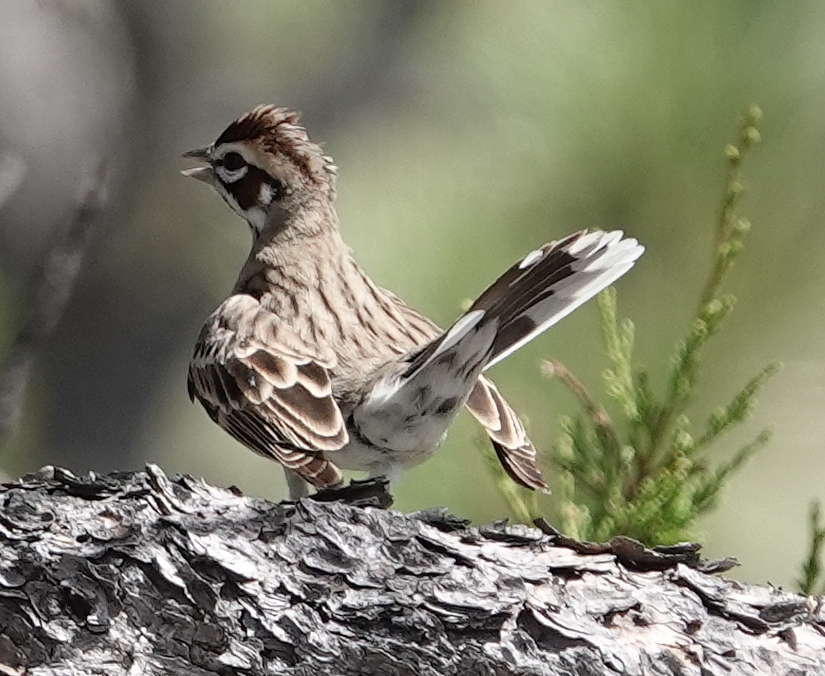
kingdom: Animalia
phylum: Chordata
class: Aves
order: Passeriformes
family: Passerellidae
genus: Chondestes
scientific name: Chondestes grammacus
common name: Lark sparrow
